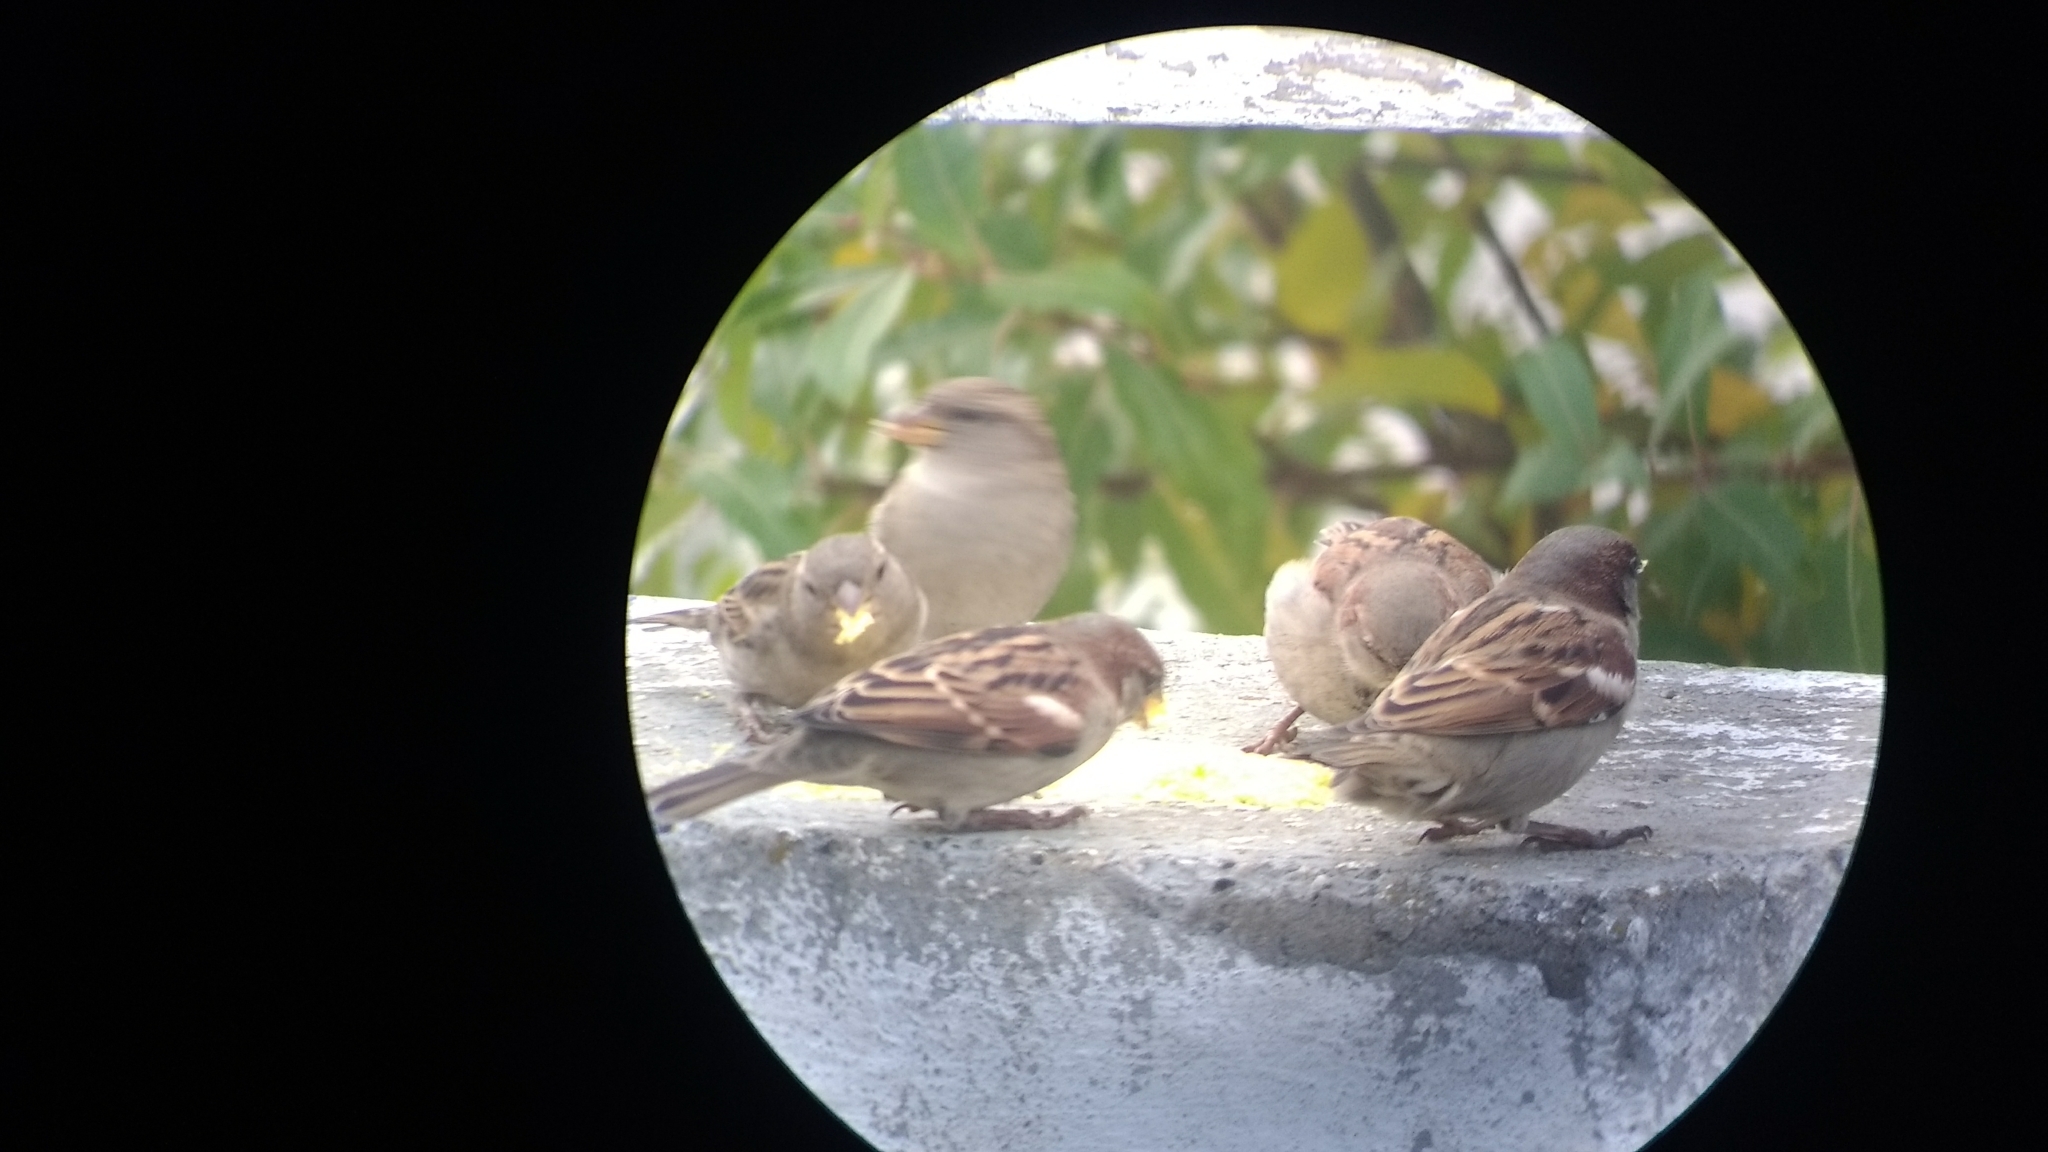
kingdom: Animalia
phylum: Chordata
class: Aves
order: Passeriformes
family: Passeridae
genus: Passer
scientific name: Passer domesticus
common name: House sparrow
